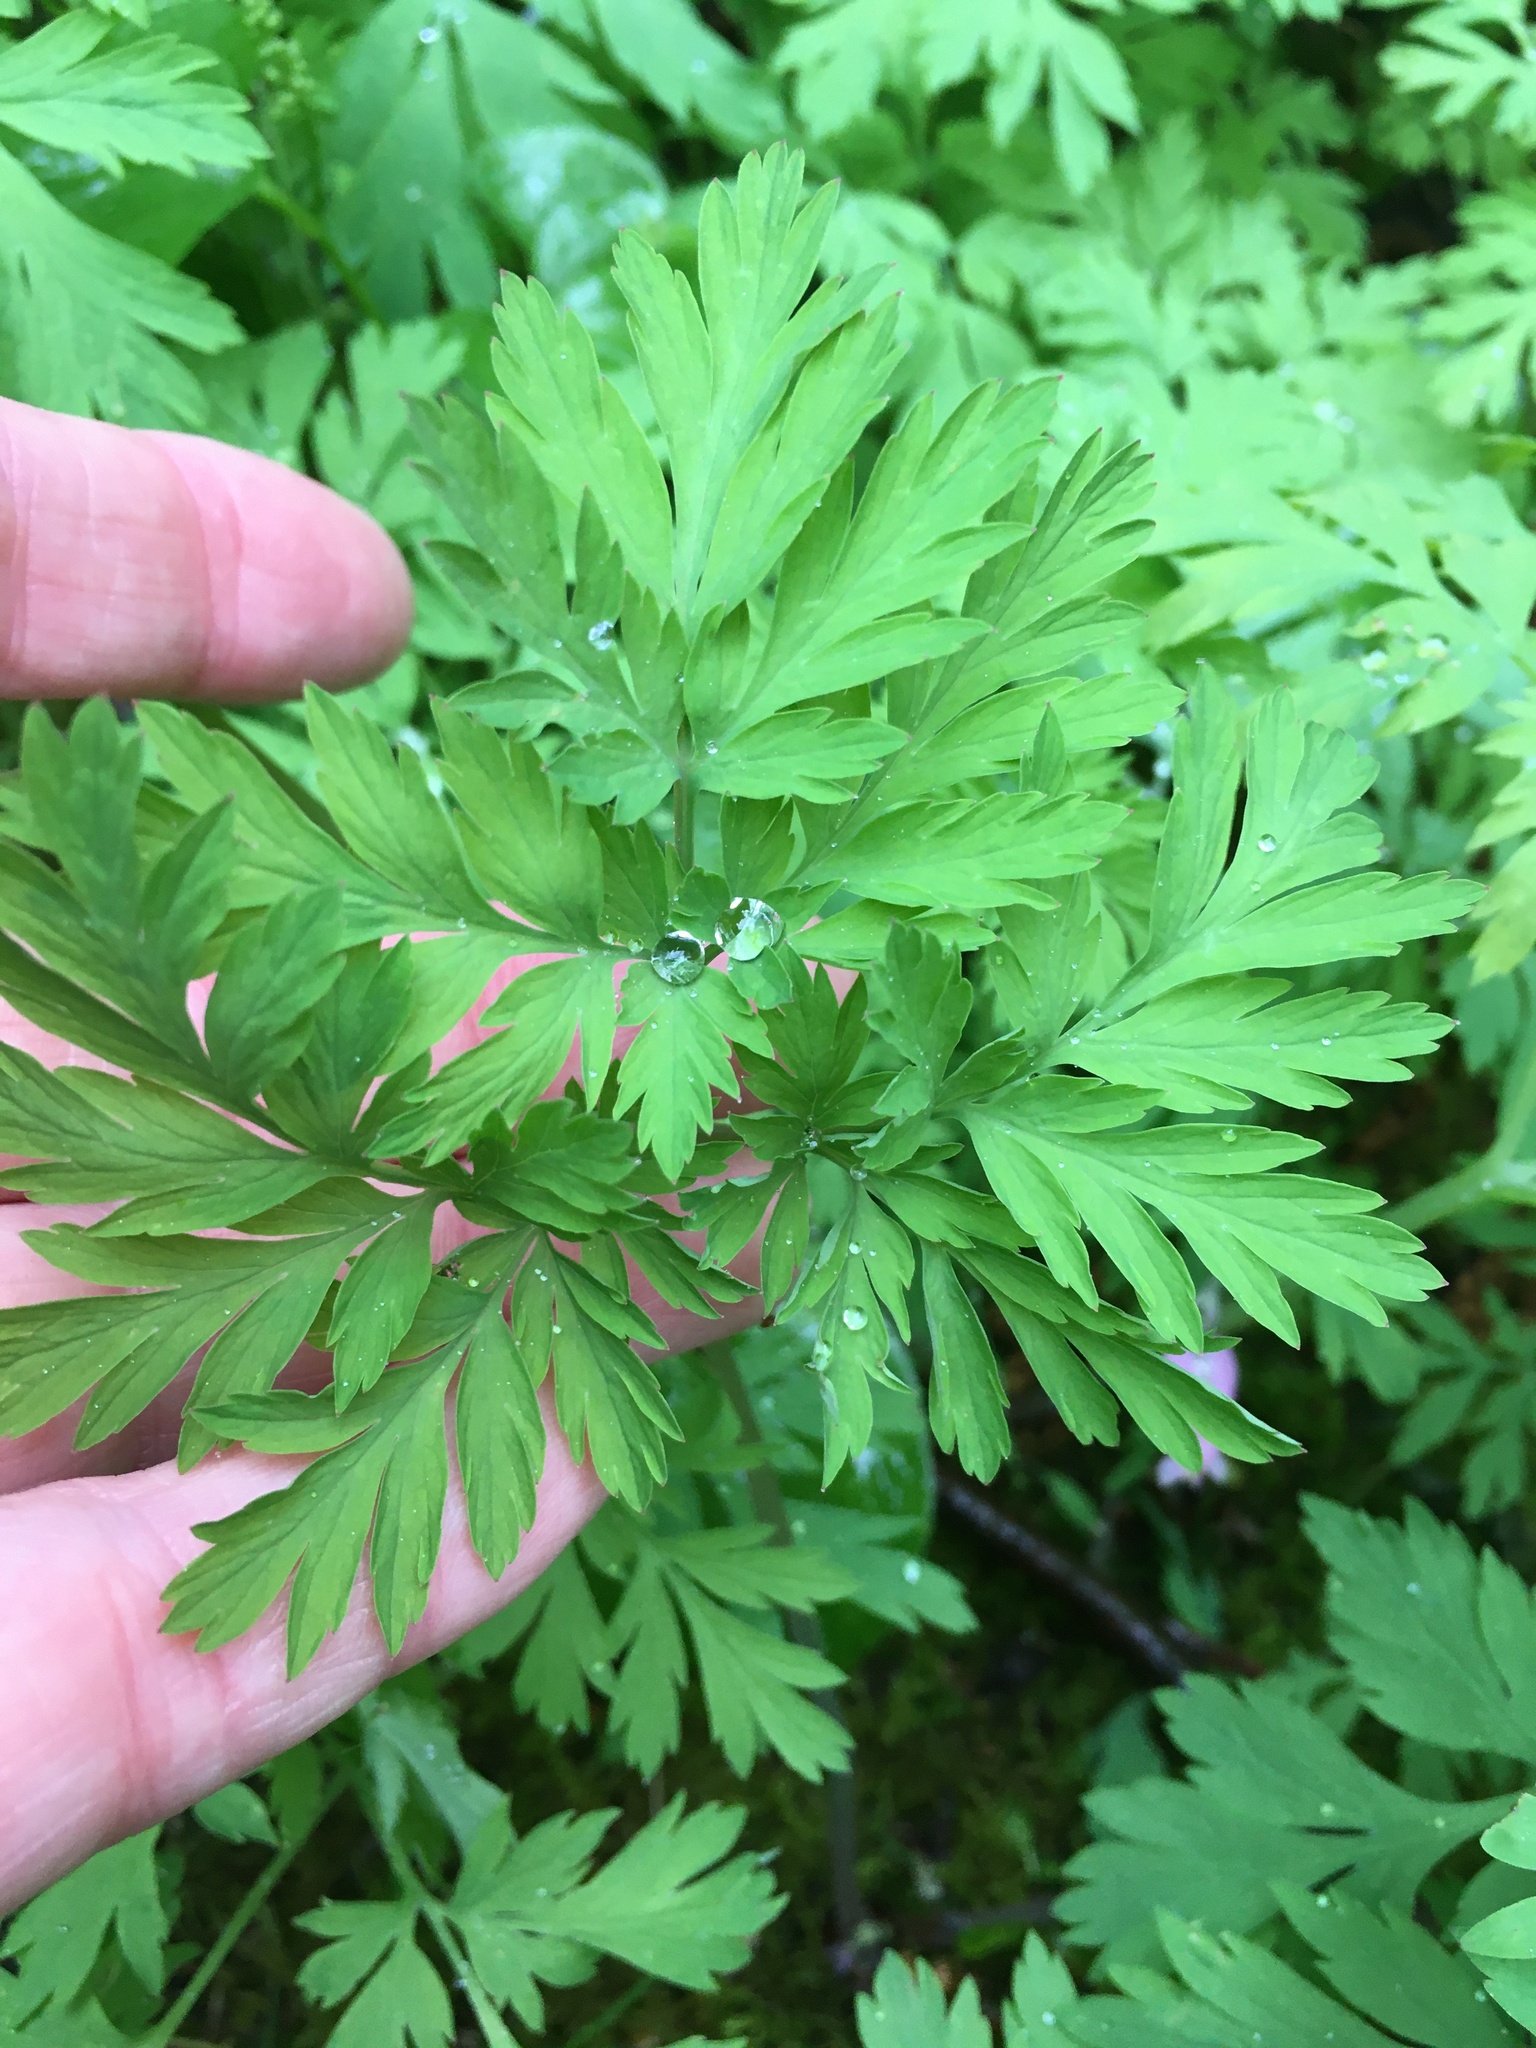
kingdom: Plantae
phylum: Tracheophyta
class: Magnoliopsida
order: Ranunculales
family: Papaveraceae
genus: Dicentra
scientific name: Dicentra formosa
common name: Bleeding-heart
